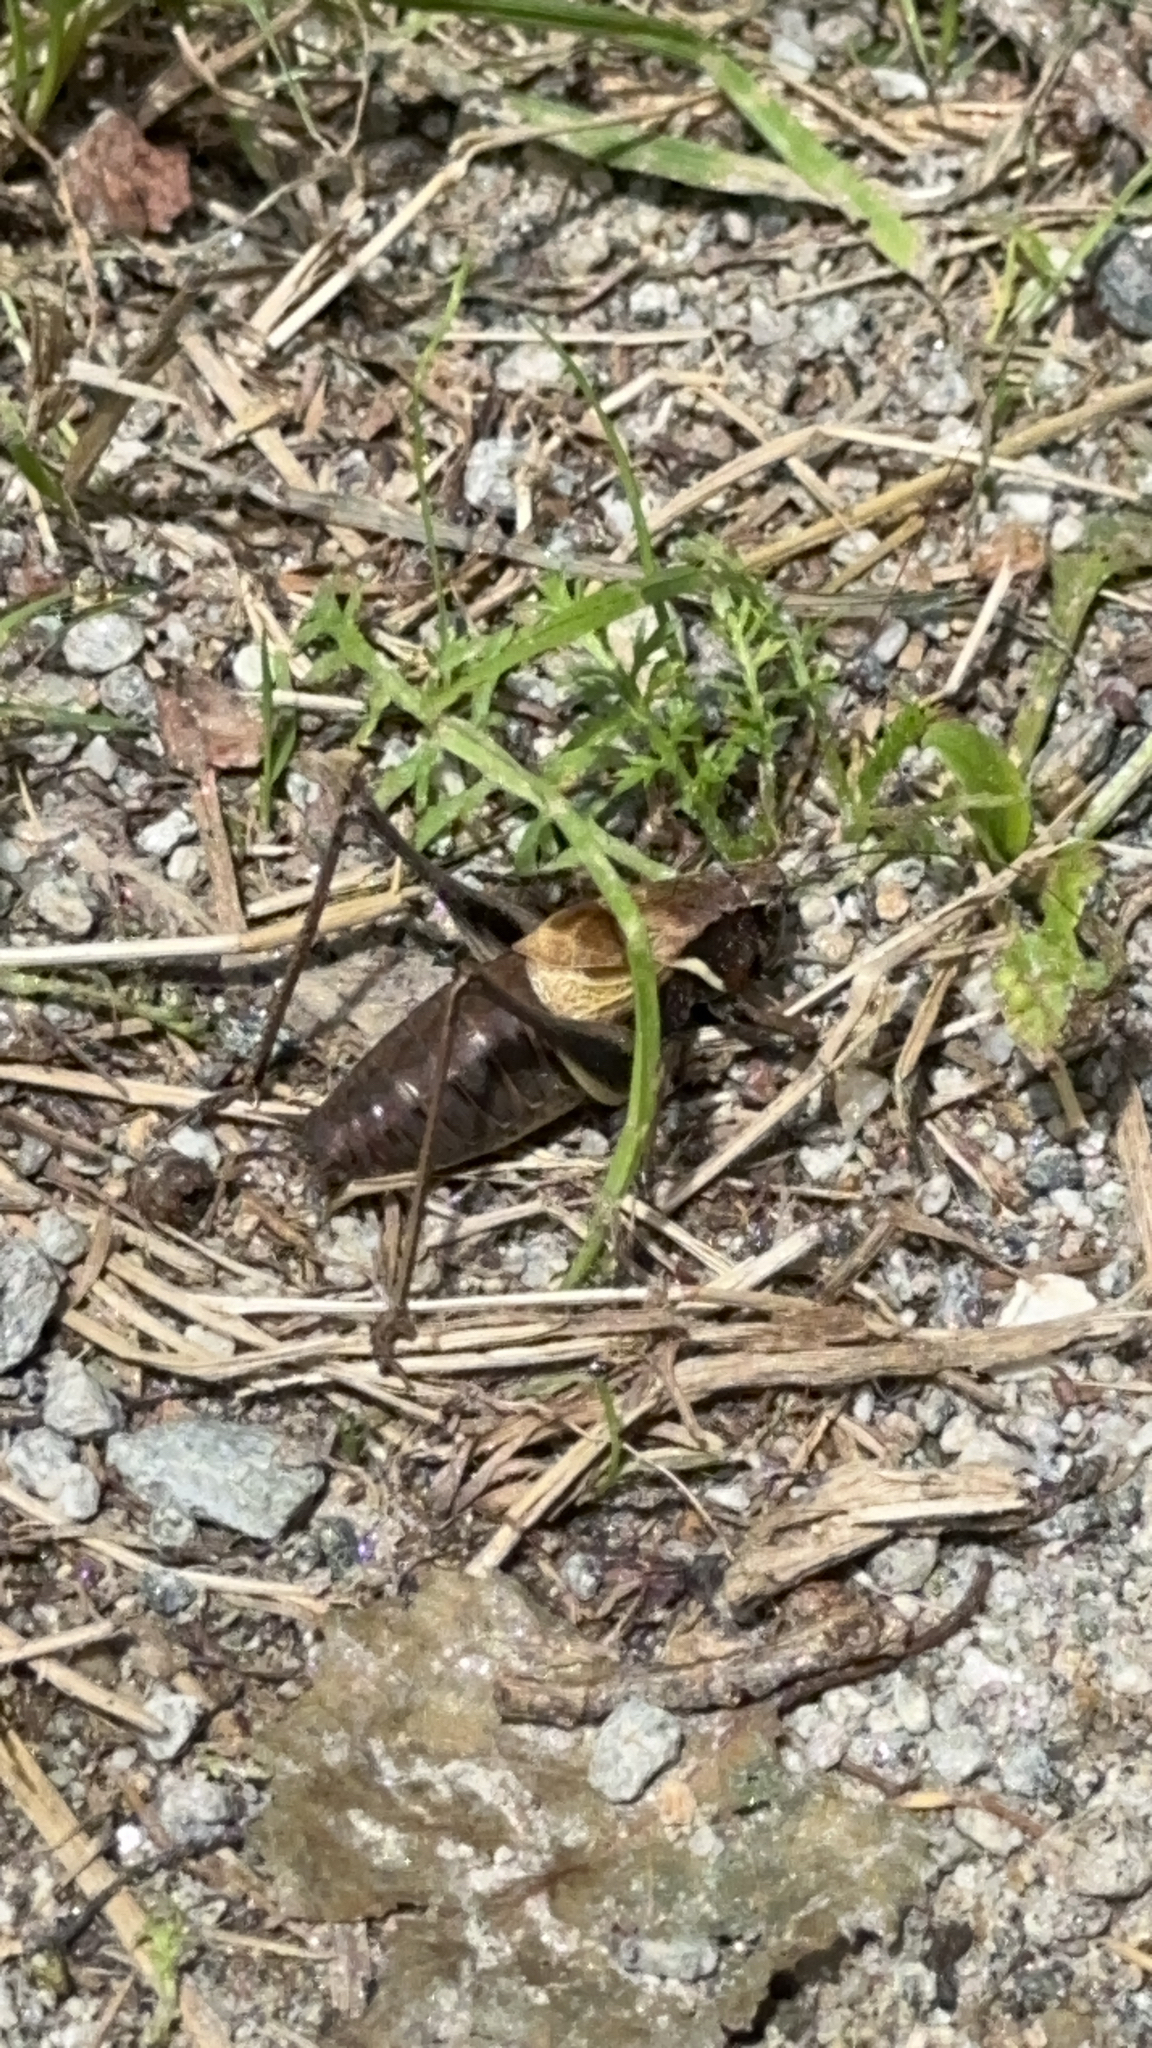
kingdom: Animalia
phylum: Arthropoda
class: Insecta
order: Orthoptera
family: Tettigoniidae
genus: Pholidoptera
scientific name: Pholidoptera aptera
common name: Alpine dark bush-cricket
